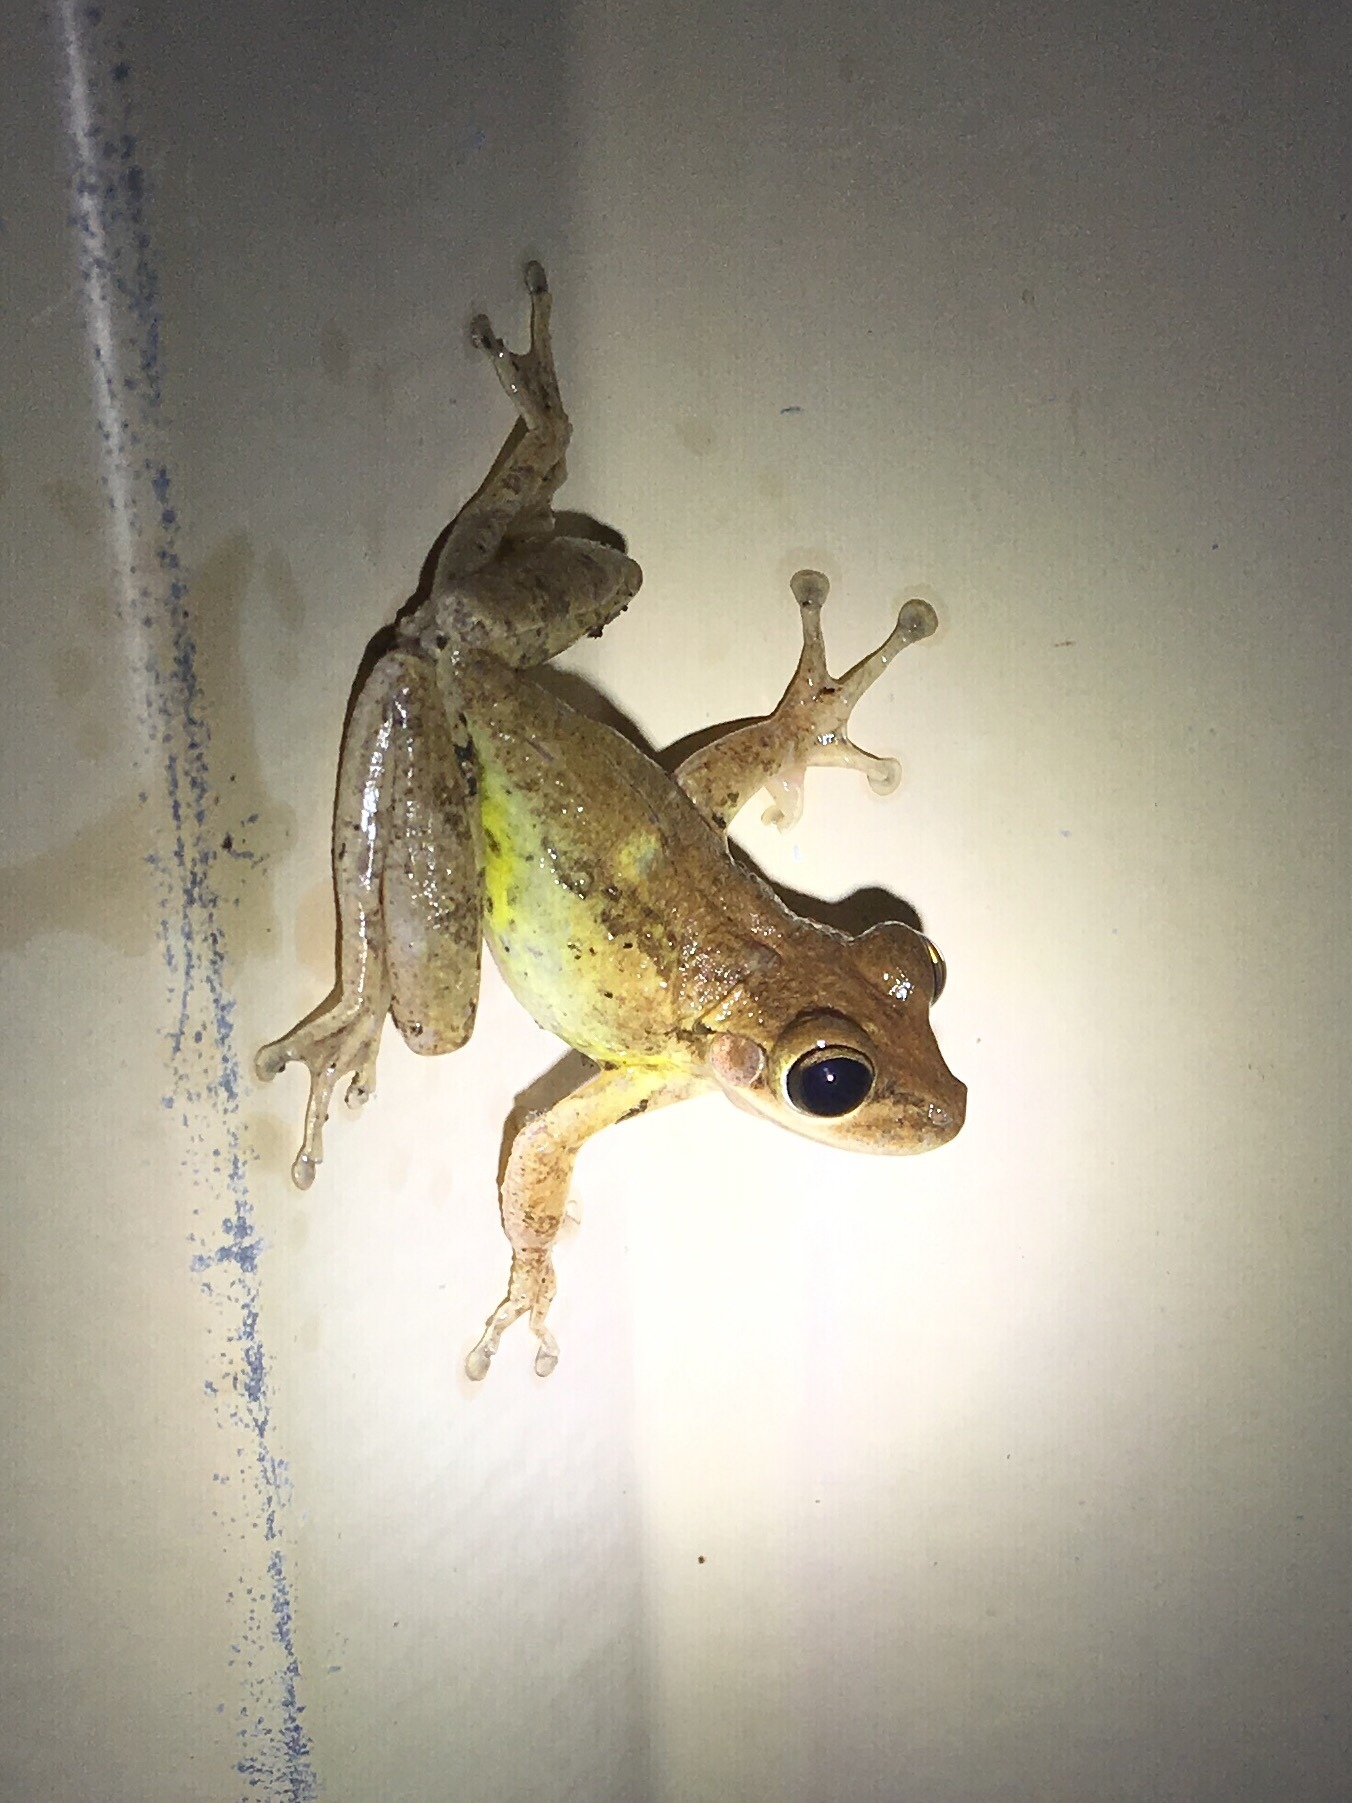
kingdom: Animalia
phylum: Chordata
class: Amphibia
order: Anura
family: Hylidae
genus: Osteopilus
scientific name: Osteopilus septentrionalis
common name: Cuban treefrog
